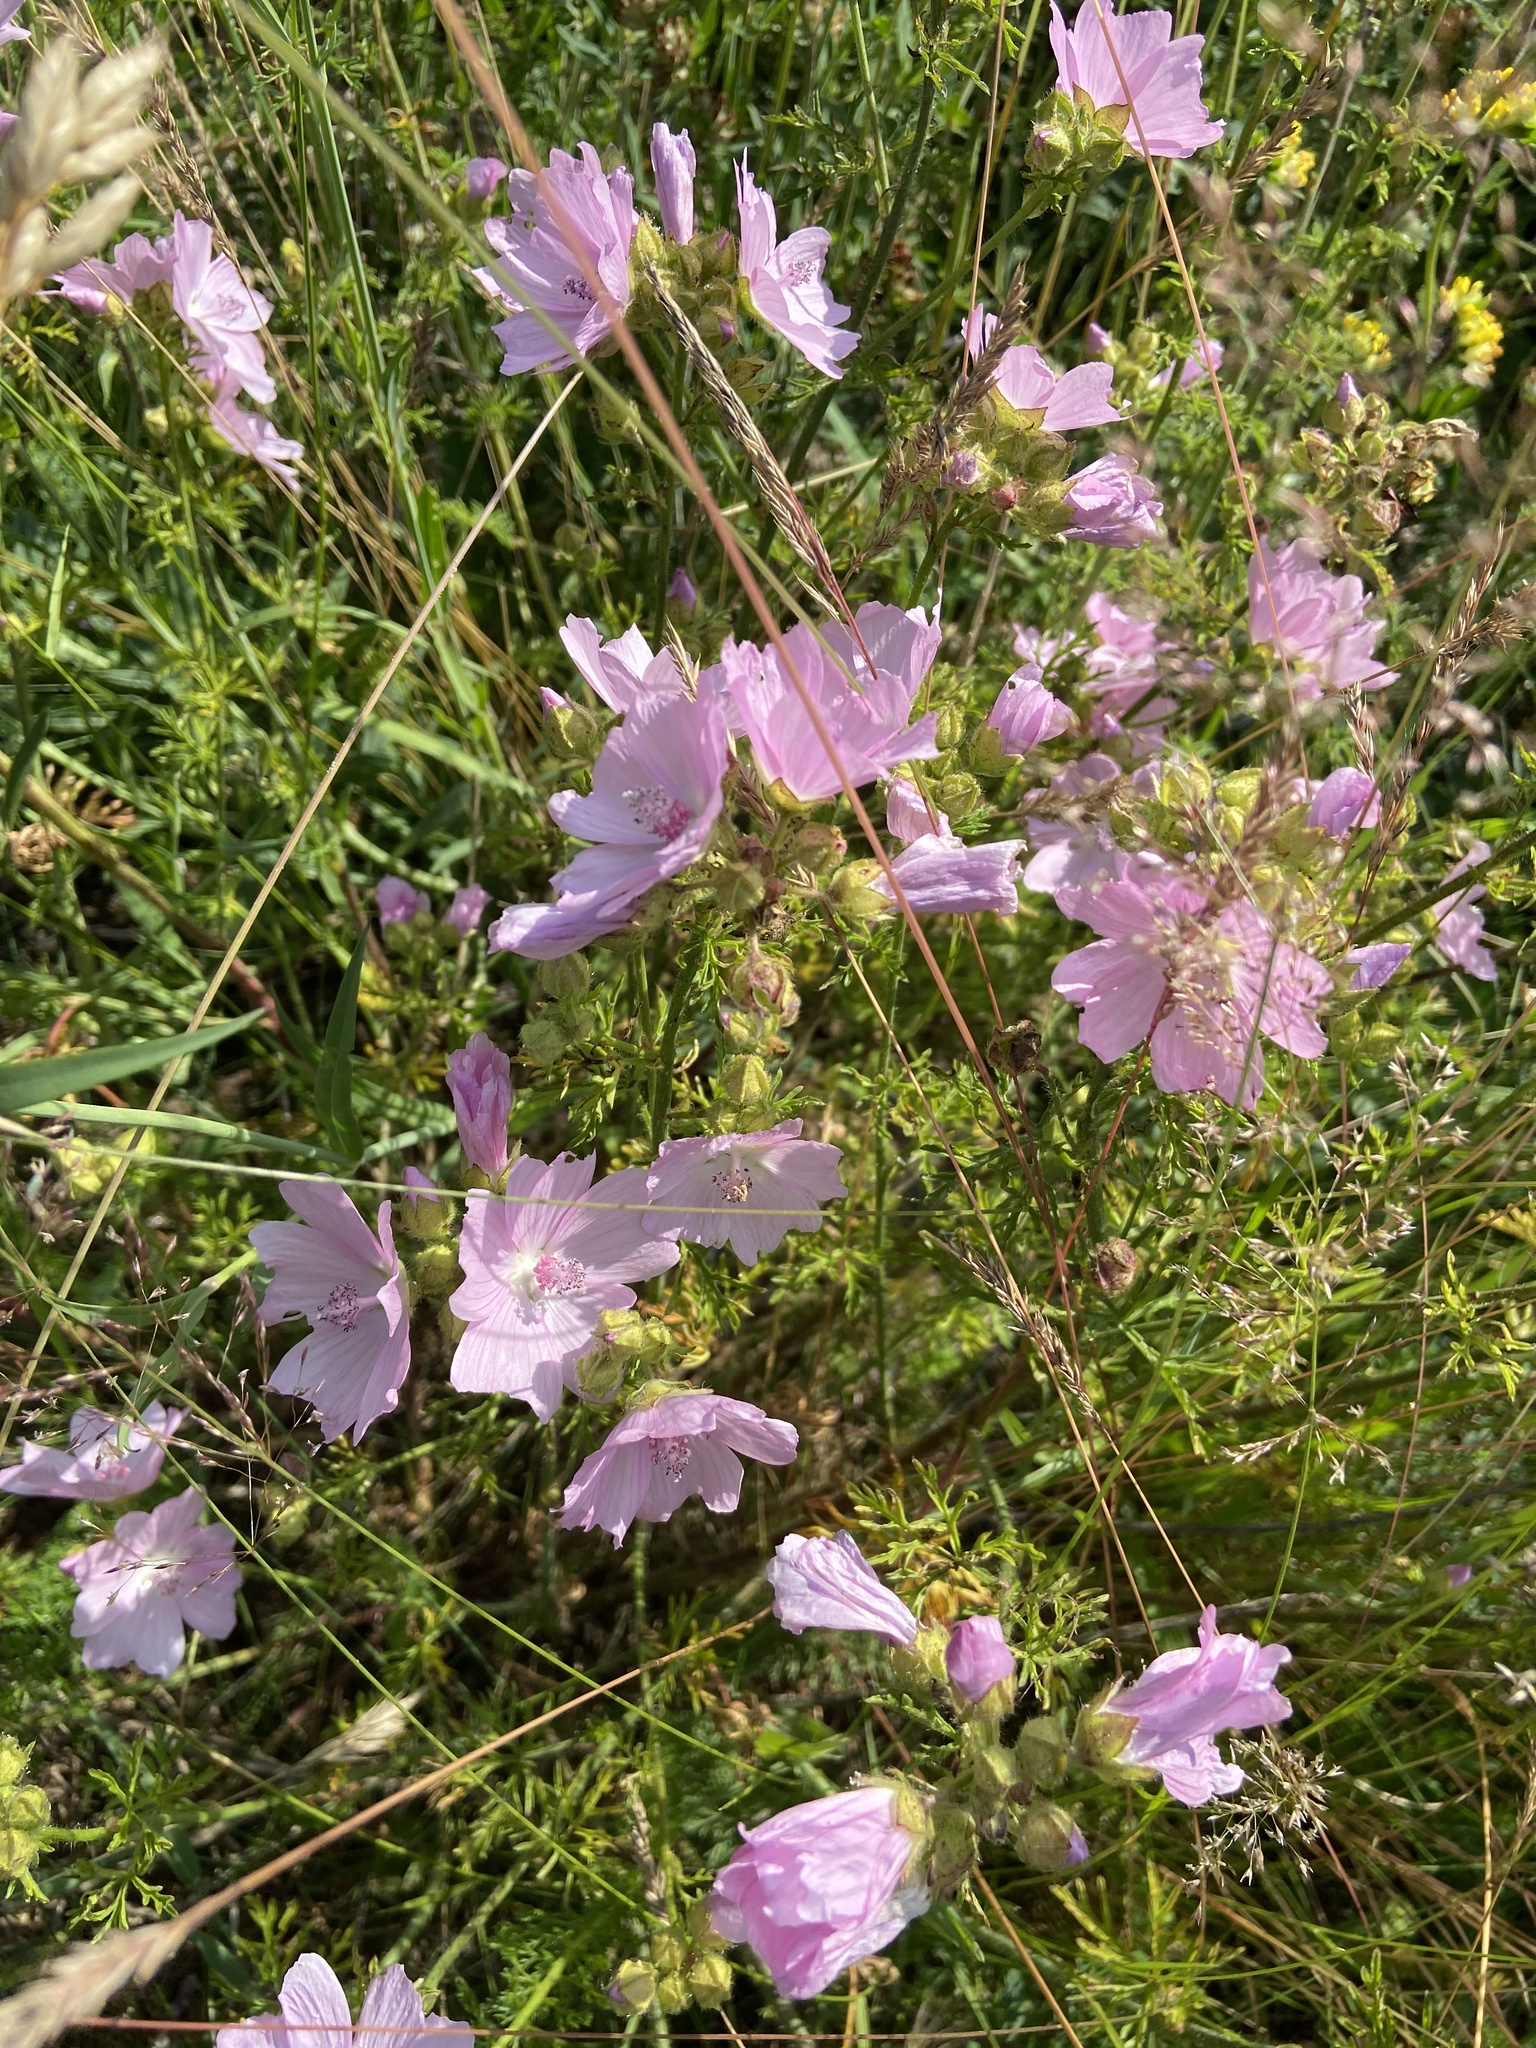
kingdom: Plantae
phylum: Tracheophyta
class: Magnoliopsida
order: Malvales
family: Malvaceae
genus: Malva
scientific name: Malva moschata
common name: Musk mallow
